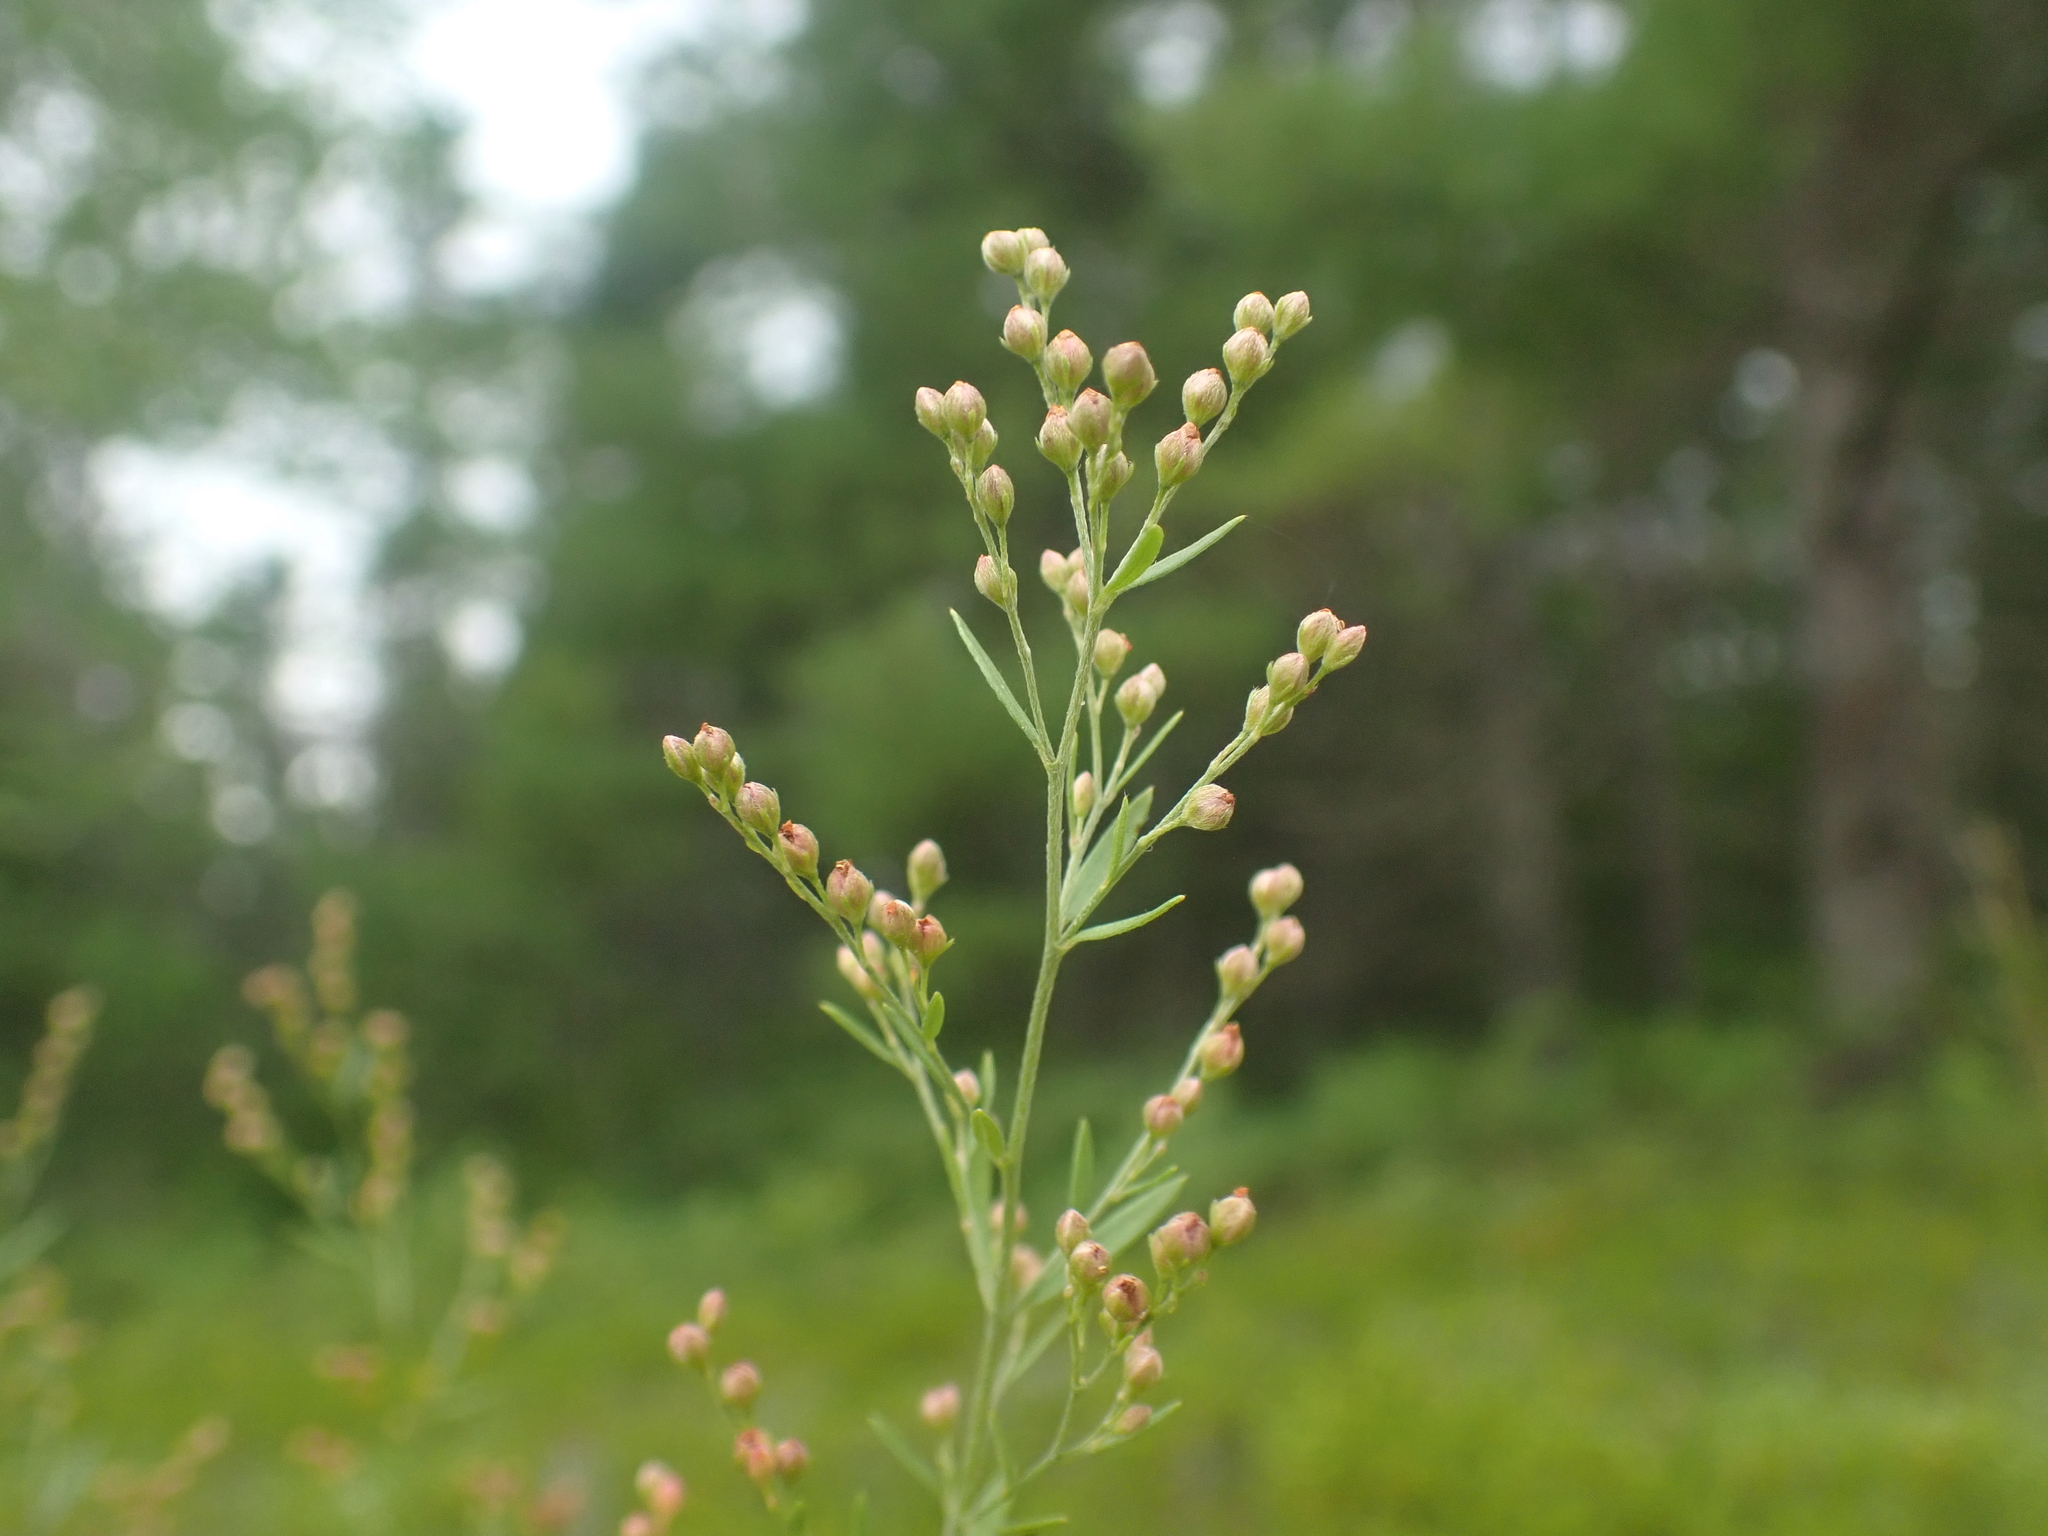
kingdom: Plantae
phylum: Tracheophyta
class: Magnoliopsida
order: Malvales
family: Cistaceae
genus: Lechea
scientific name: Lechea intermedia
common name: Intermediate pinweed
